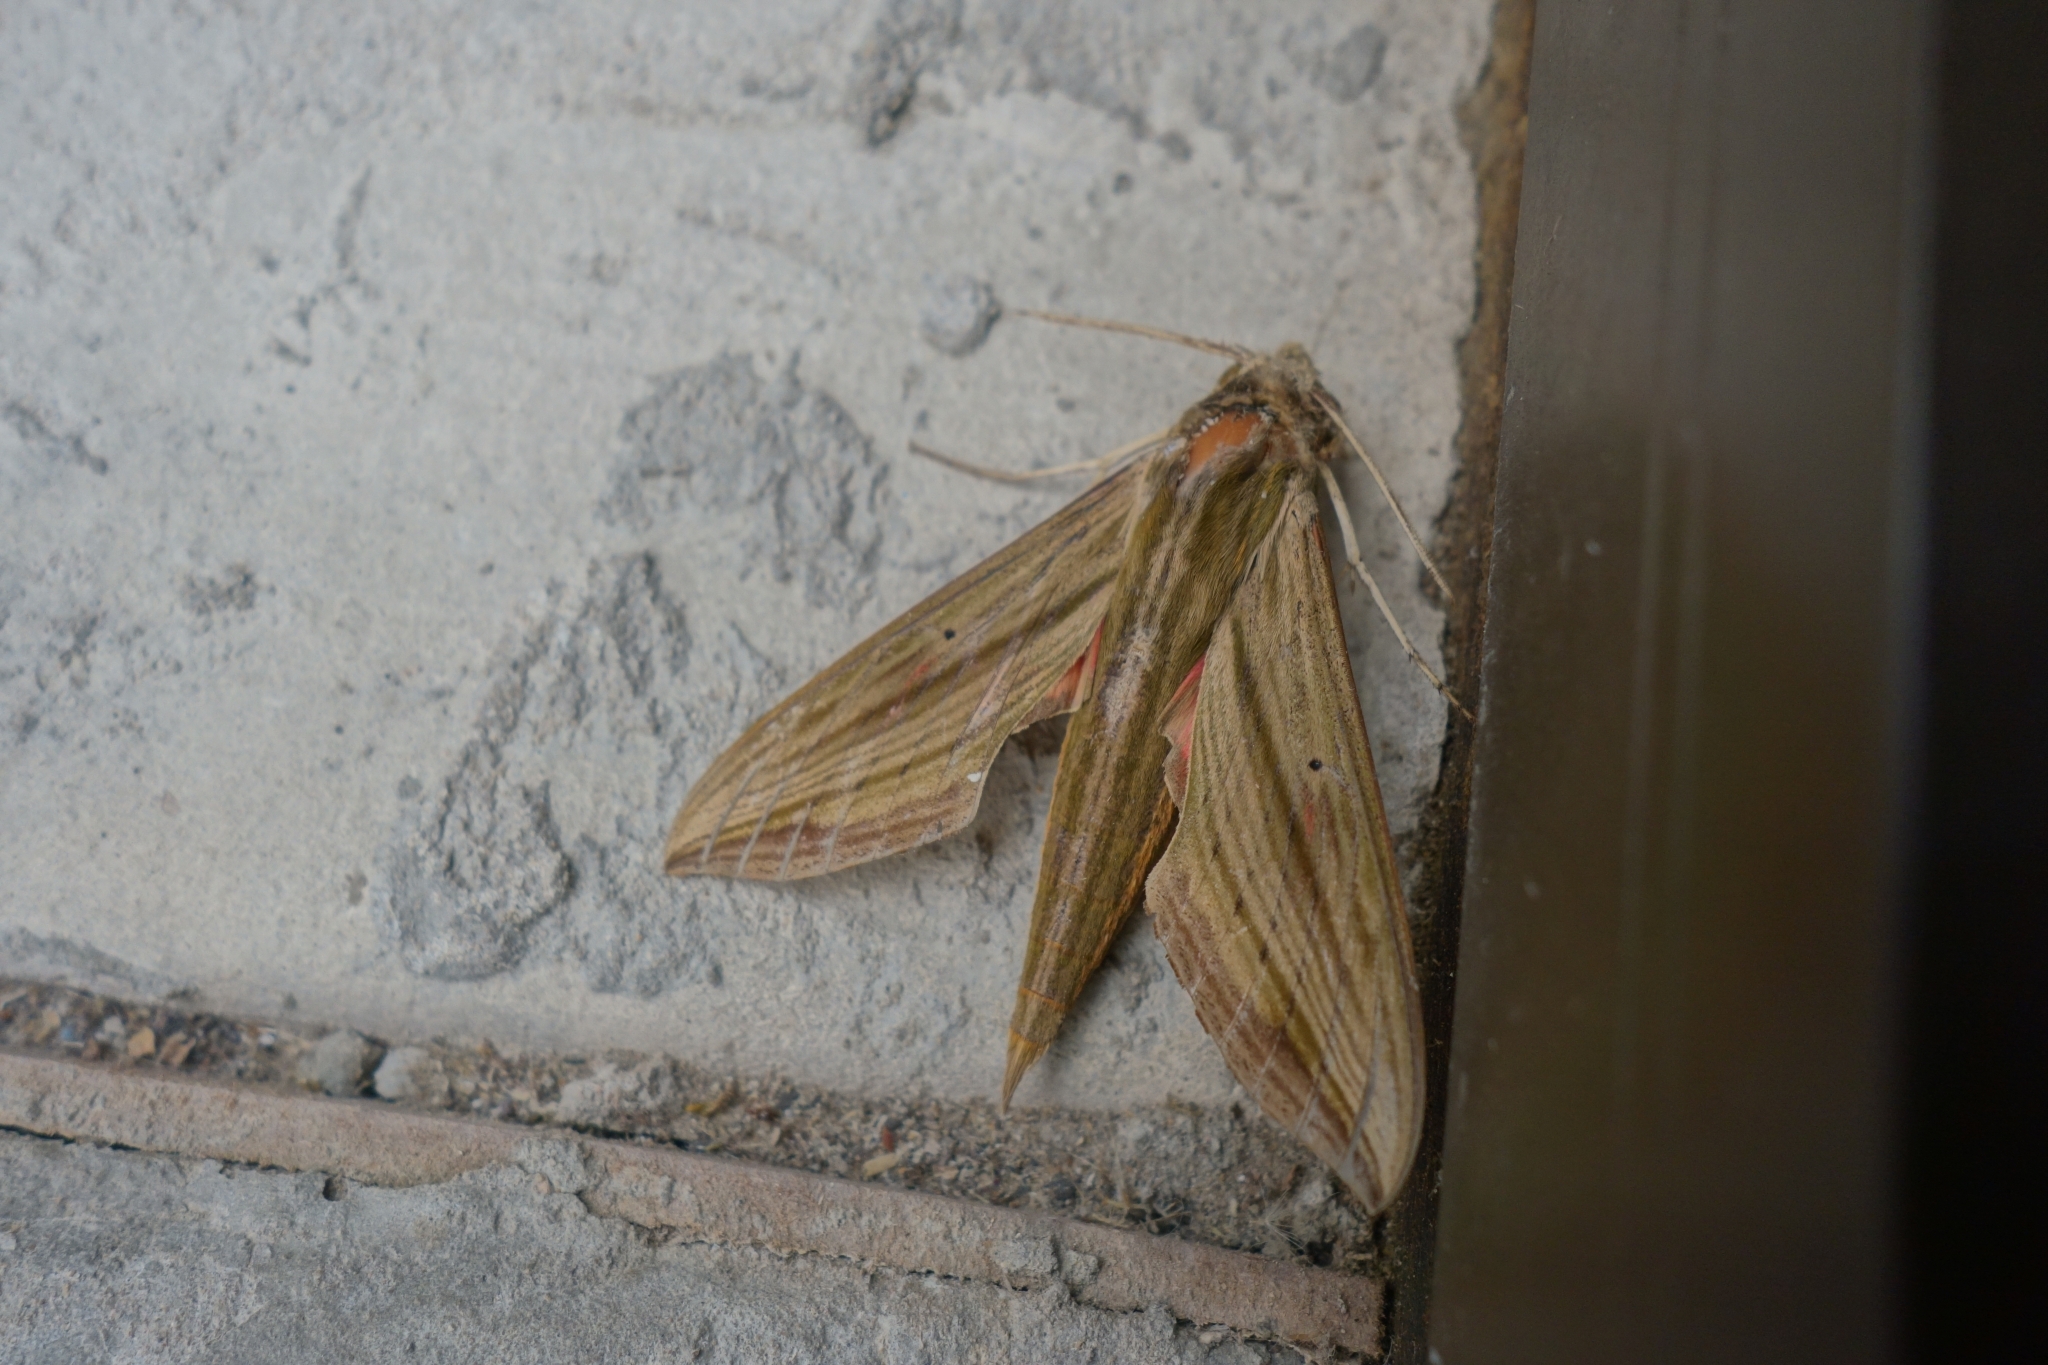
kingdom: Animalia
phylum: Arthropoda
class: Insecta
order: Lepidoptera
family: Sphingidae
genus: Hippotion
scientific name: Hippotion eson
